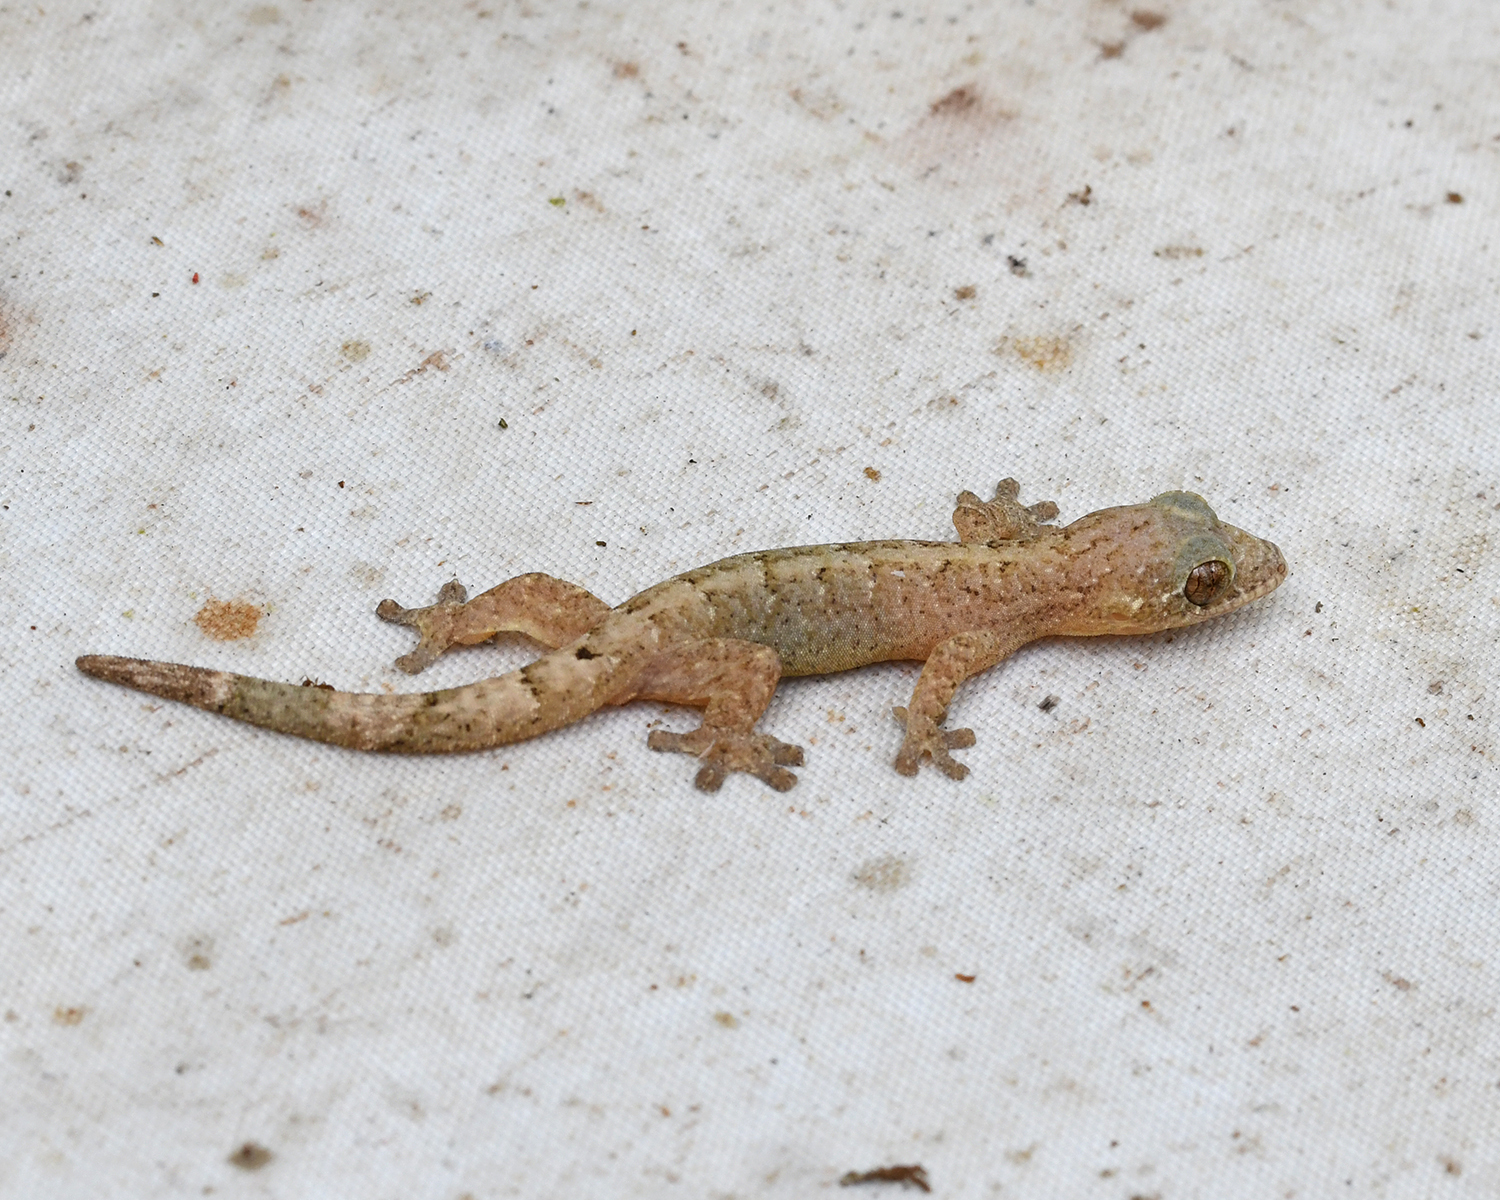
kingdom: Animalia
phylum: Chordata
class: Squamata
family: Phyllodactylidae
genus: Thecadactylus
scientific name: Thecadactylus rapicauda
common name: Turnip-tailed gecko
